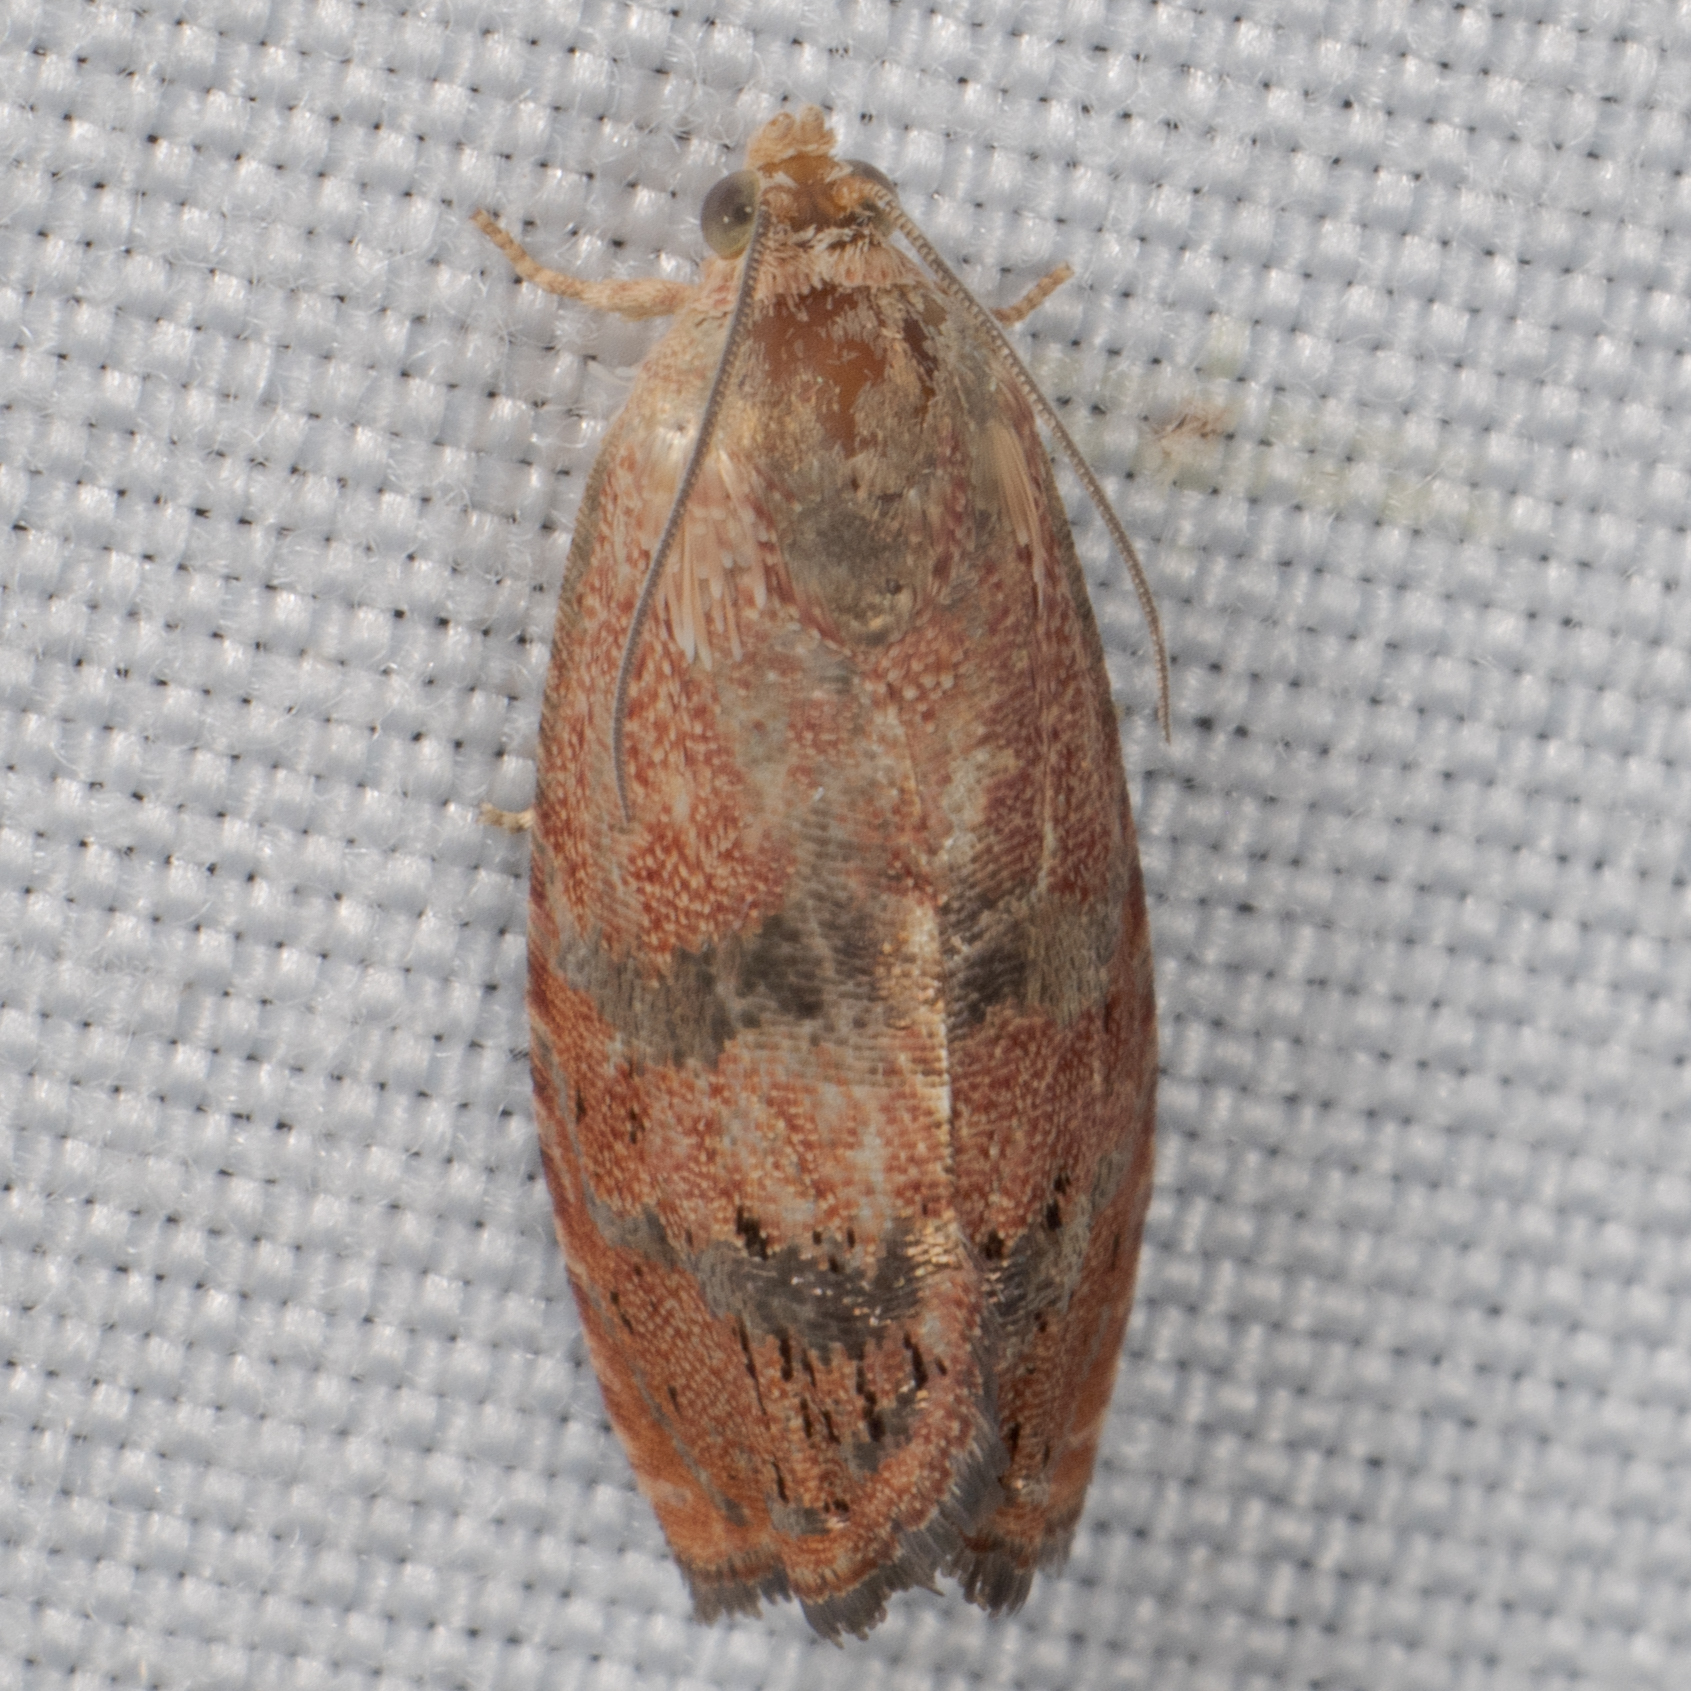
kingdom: Animalia
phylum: Arthropoda
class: Insecta
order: Lepidoptera
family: Tortricidae
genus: Cydia
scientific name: Cydia latiferreana
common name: Filbertworm moth
